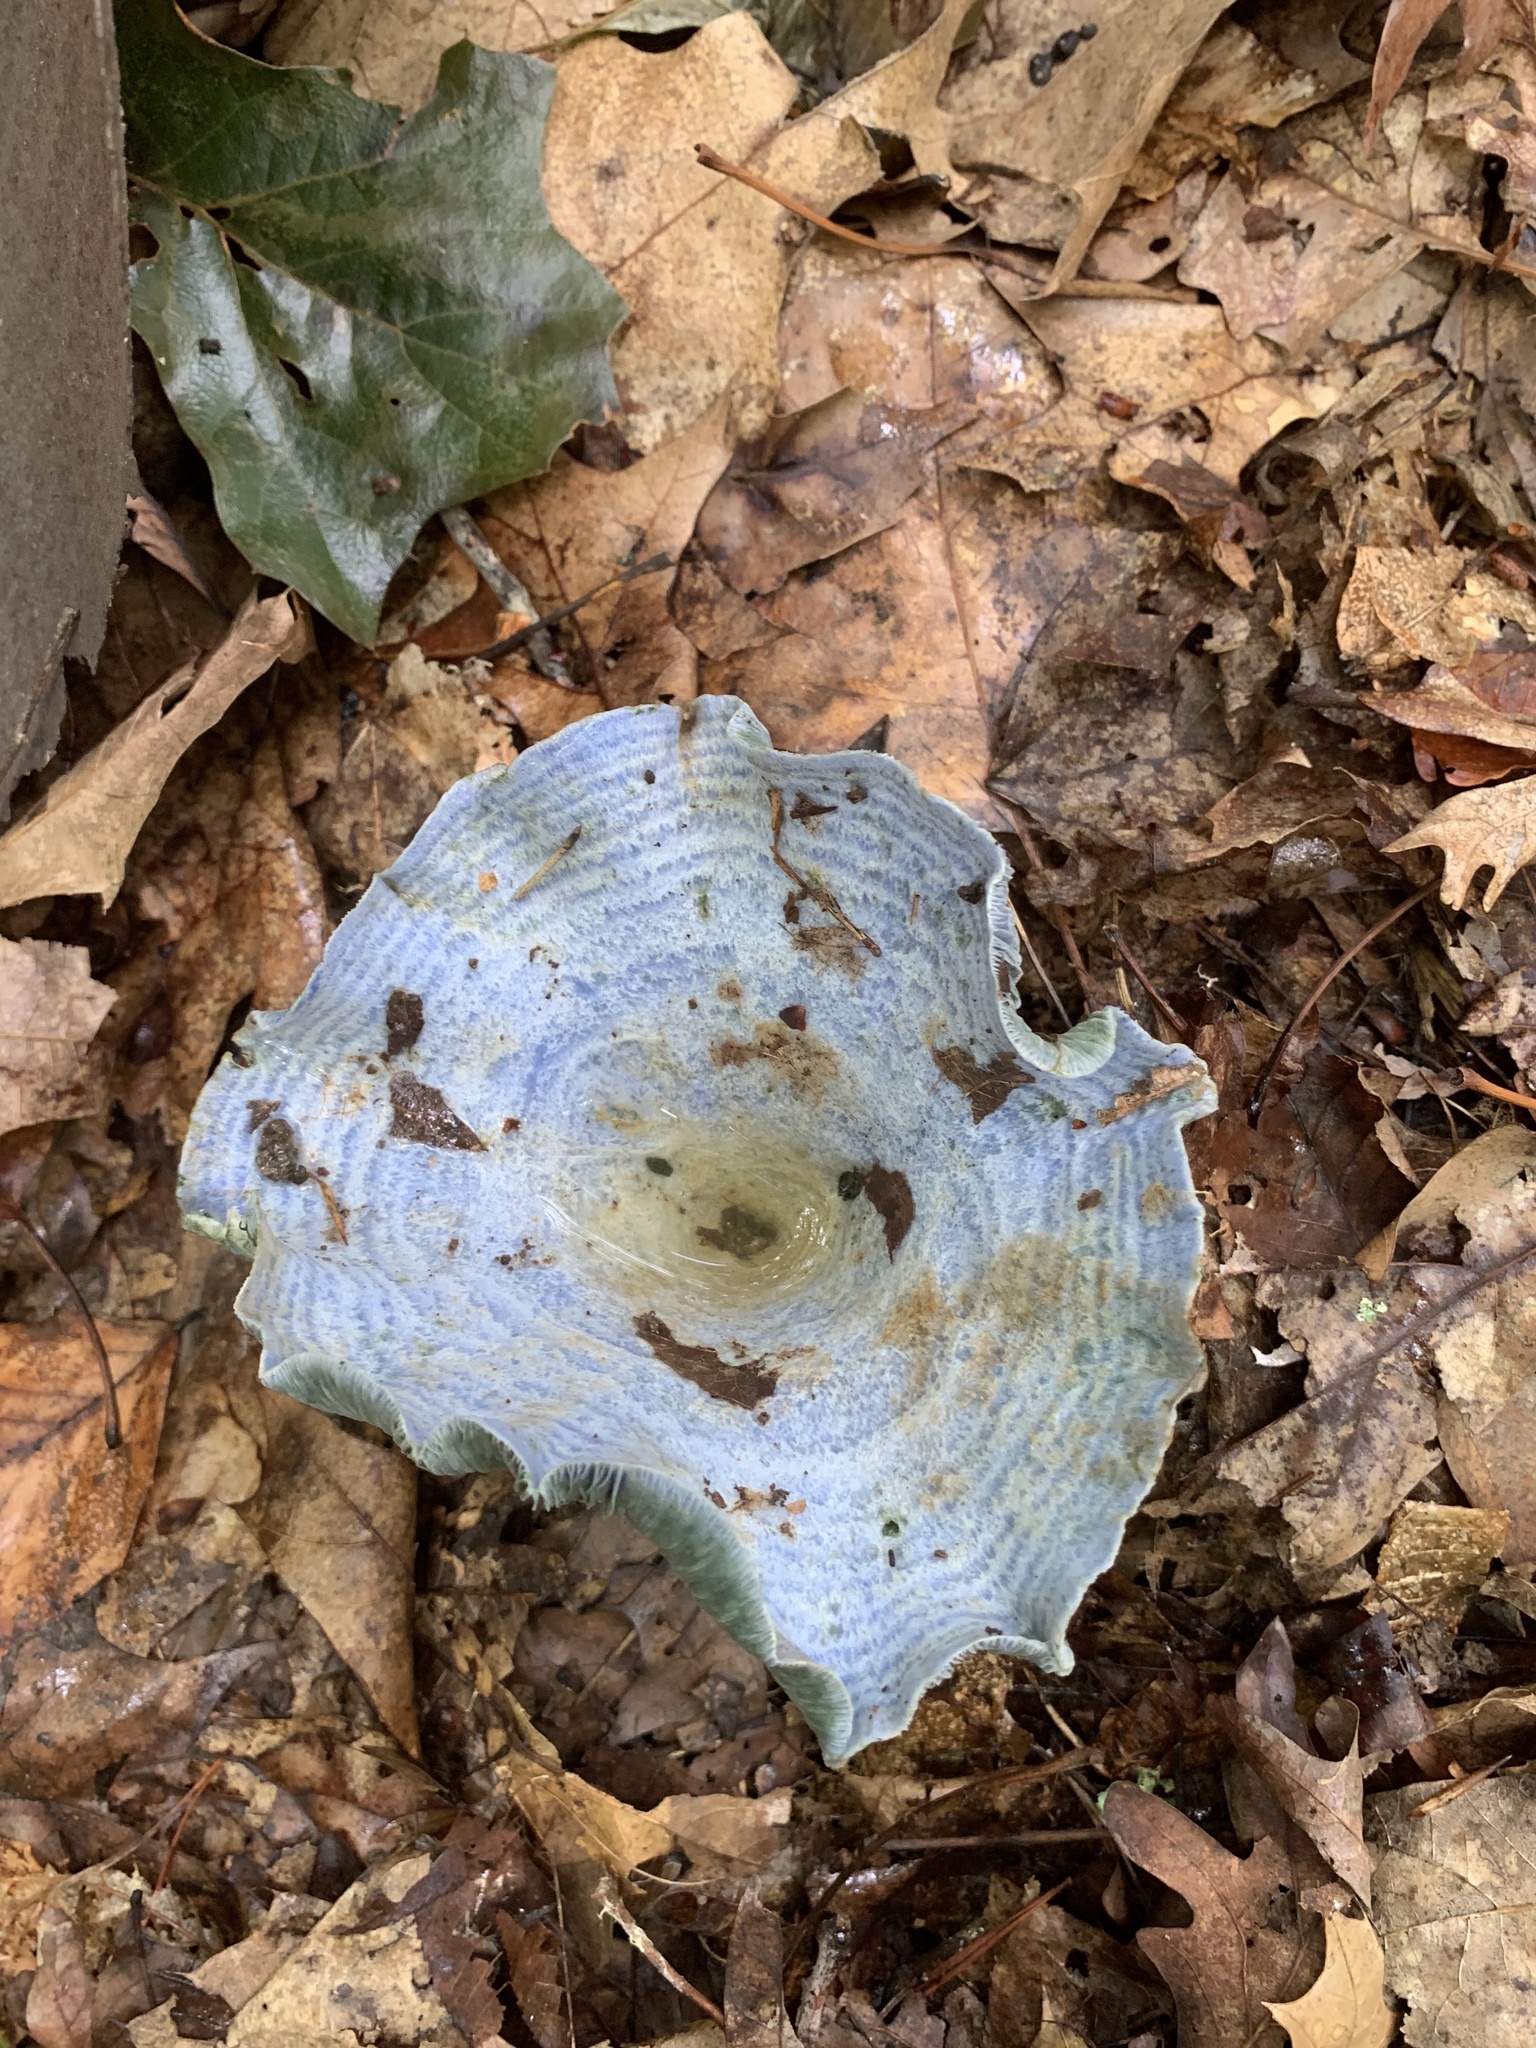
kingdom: Fungi
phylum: Basidiomycota
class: Agaricomycetes
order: Russulales
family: Russulaceae
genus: Lactarius
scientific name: Lactarius indigo
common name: Indigo milk cap
